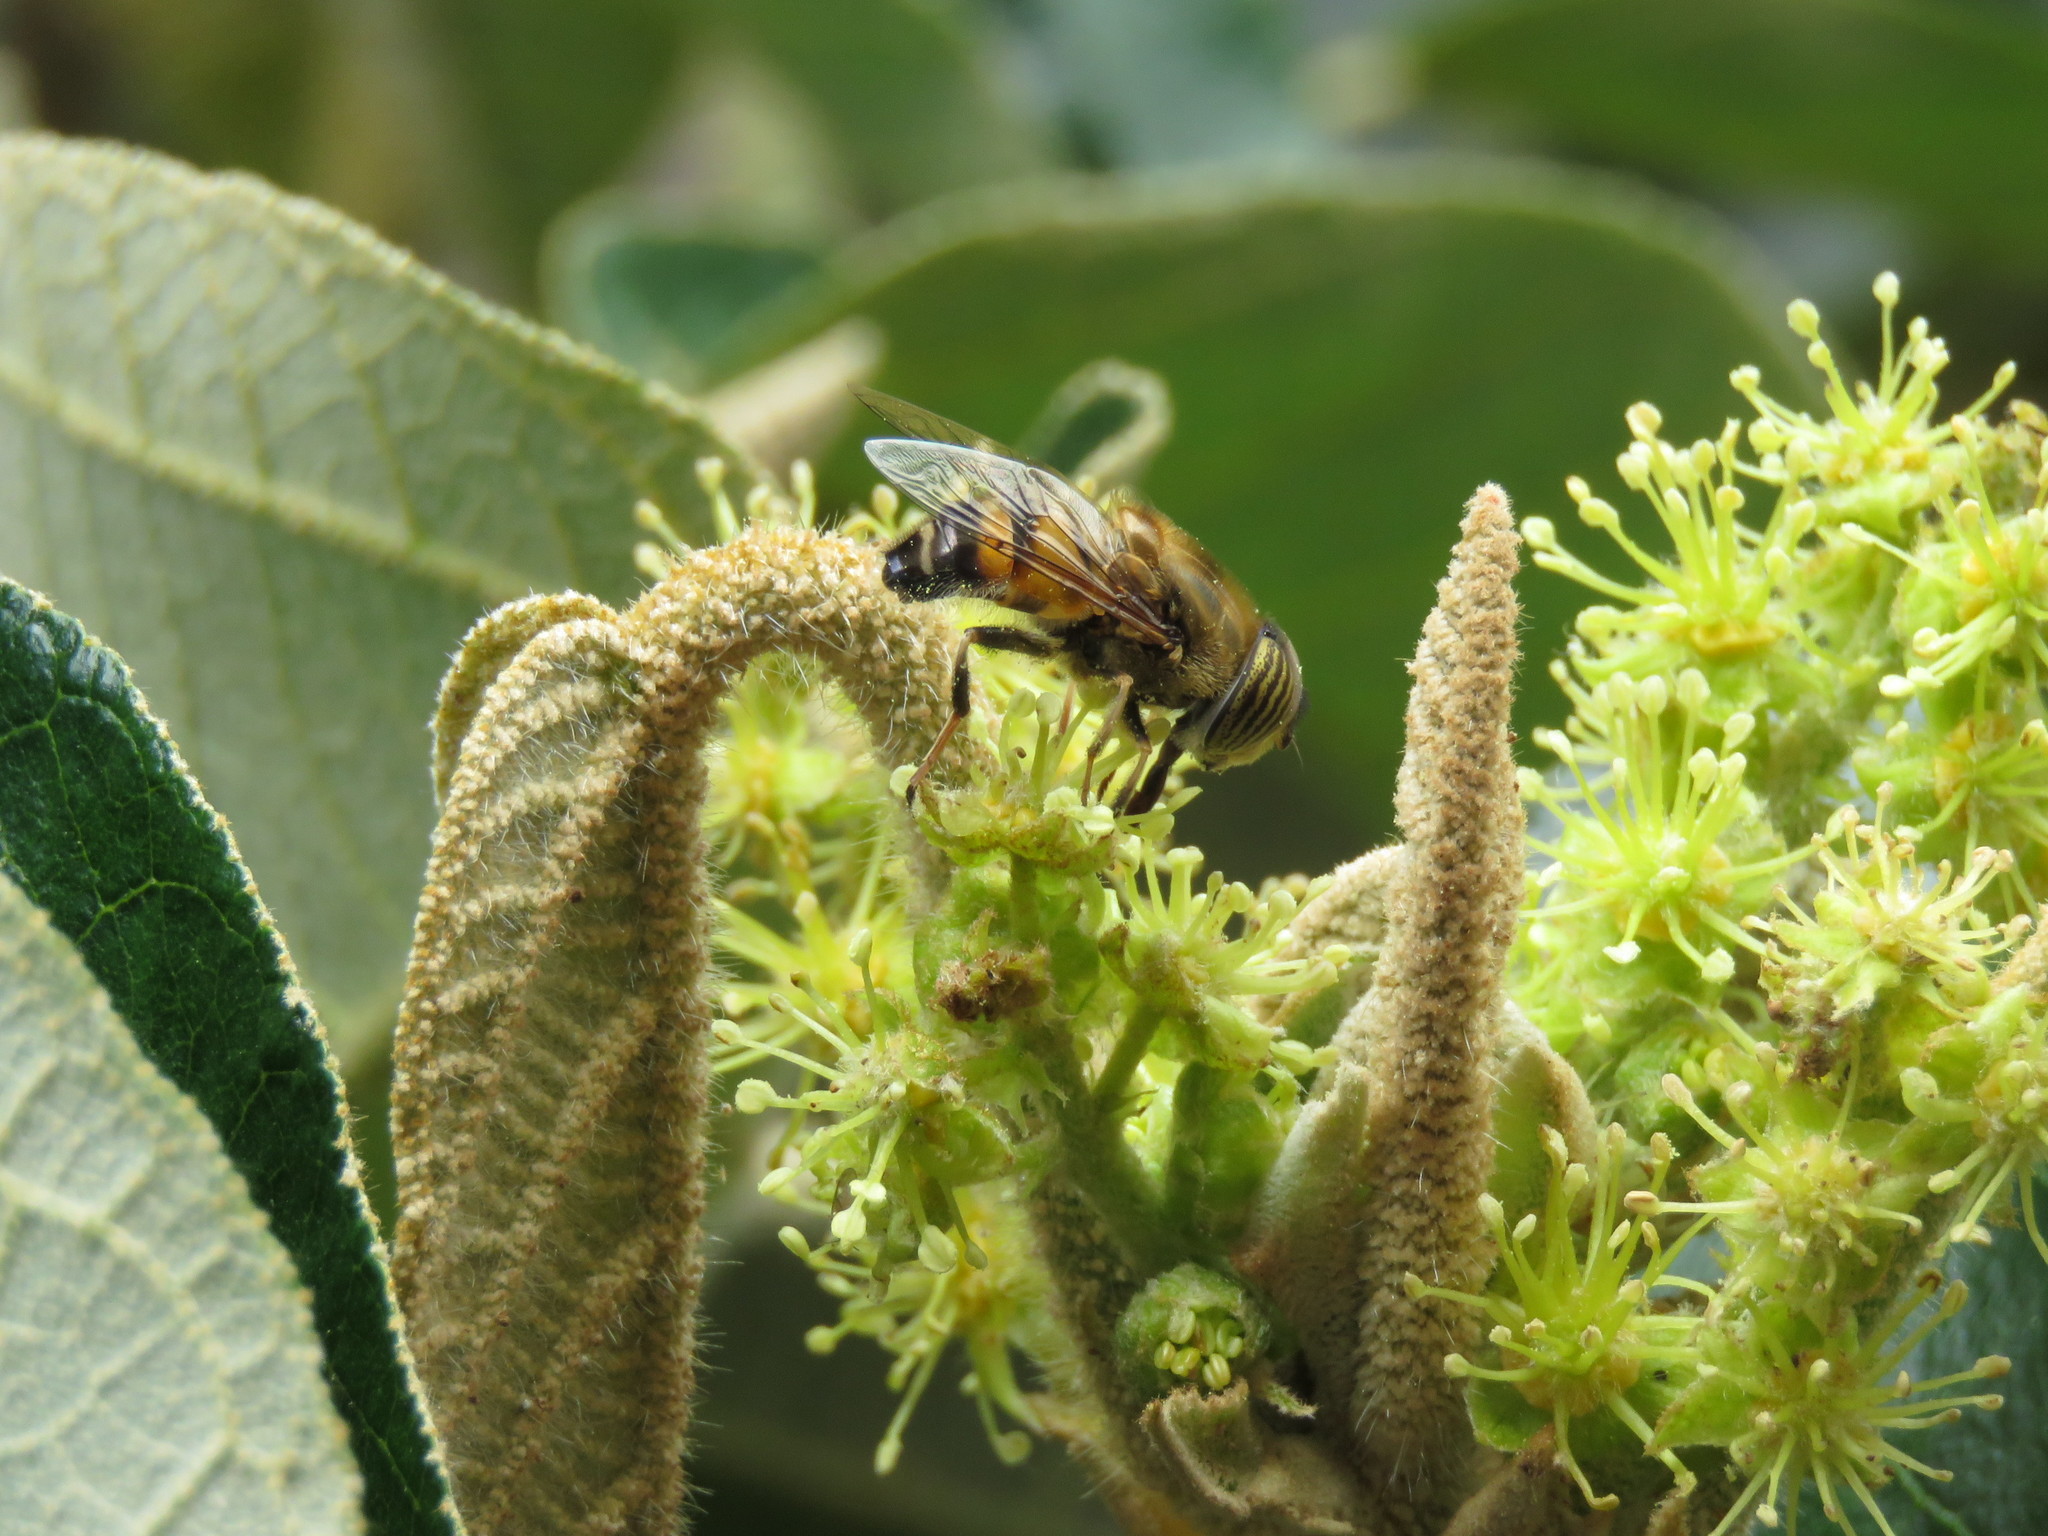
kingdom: Animalia
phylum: Arthropoda
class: Insecta
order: Diptera
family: Syrphidae
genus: Eristalinus
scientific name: Eristalinus taeniops
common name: Syrphid fly
